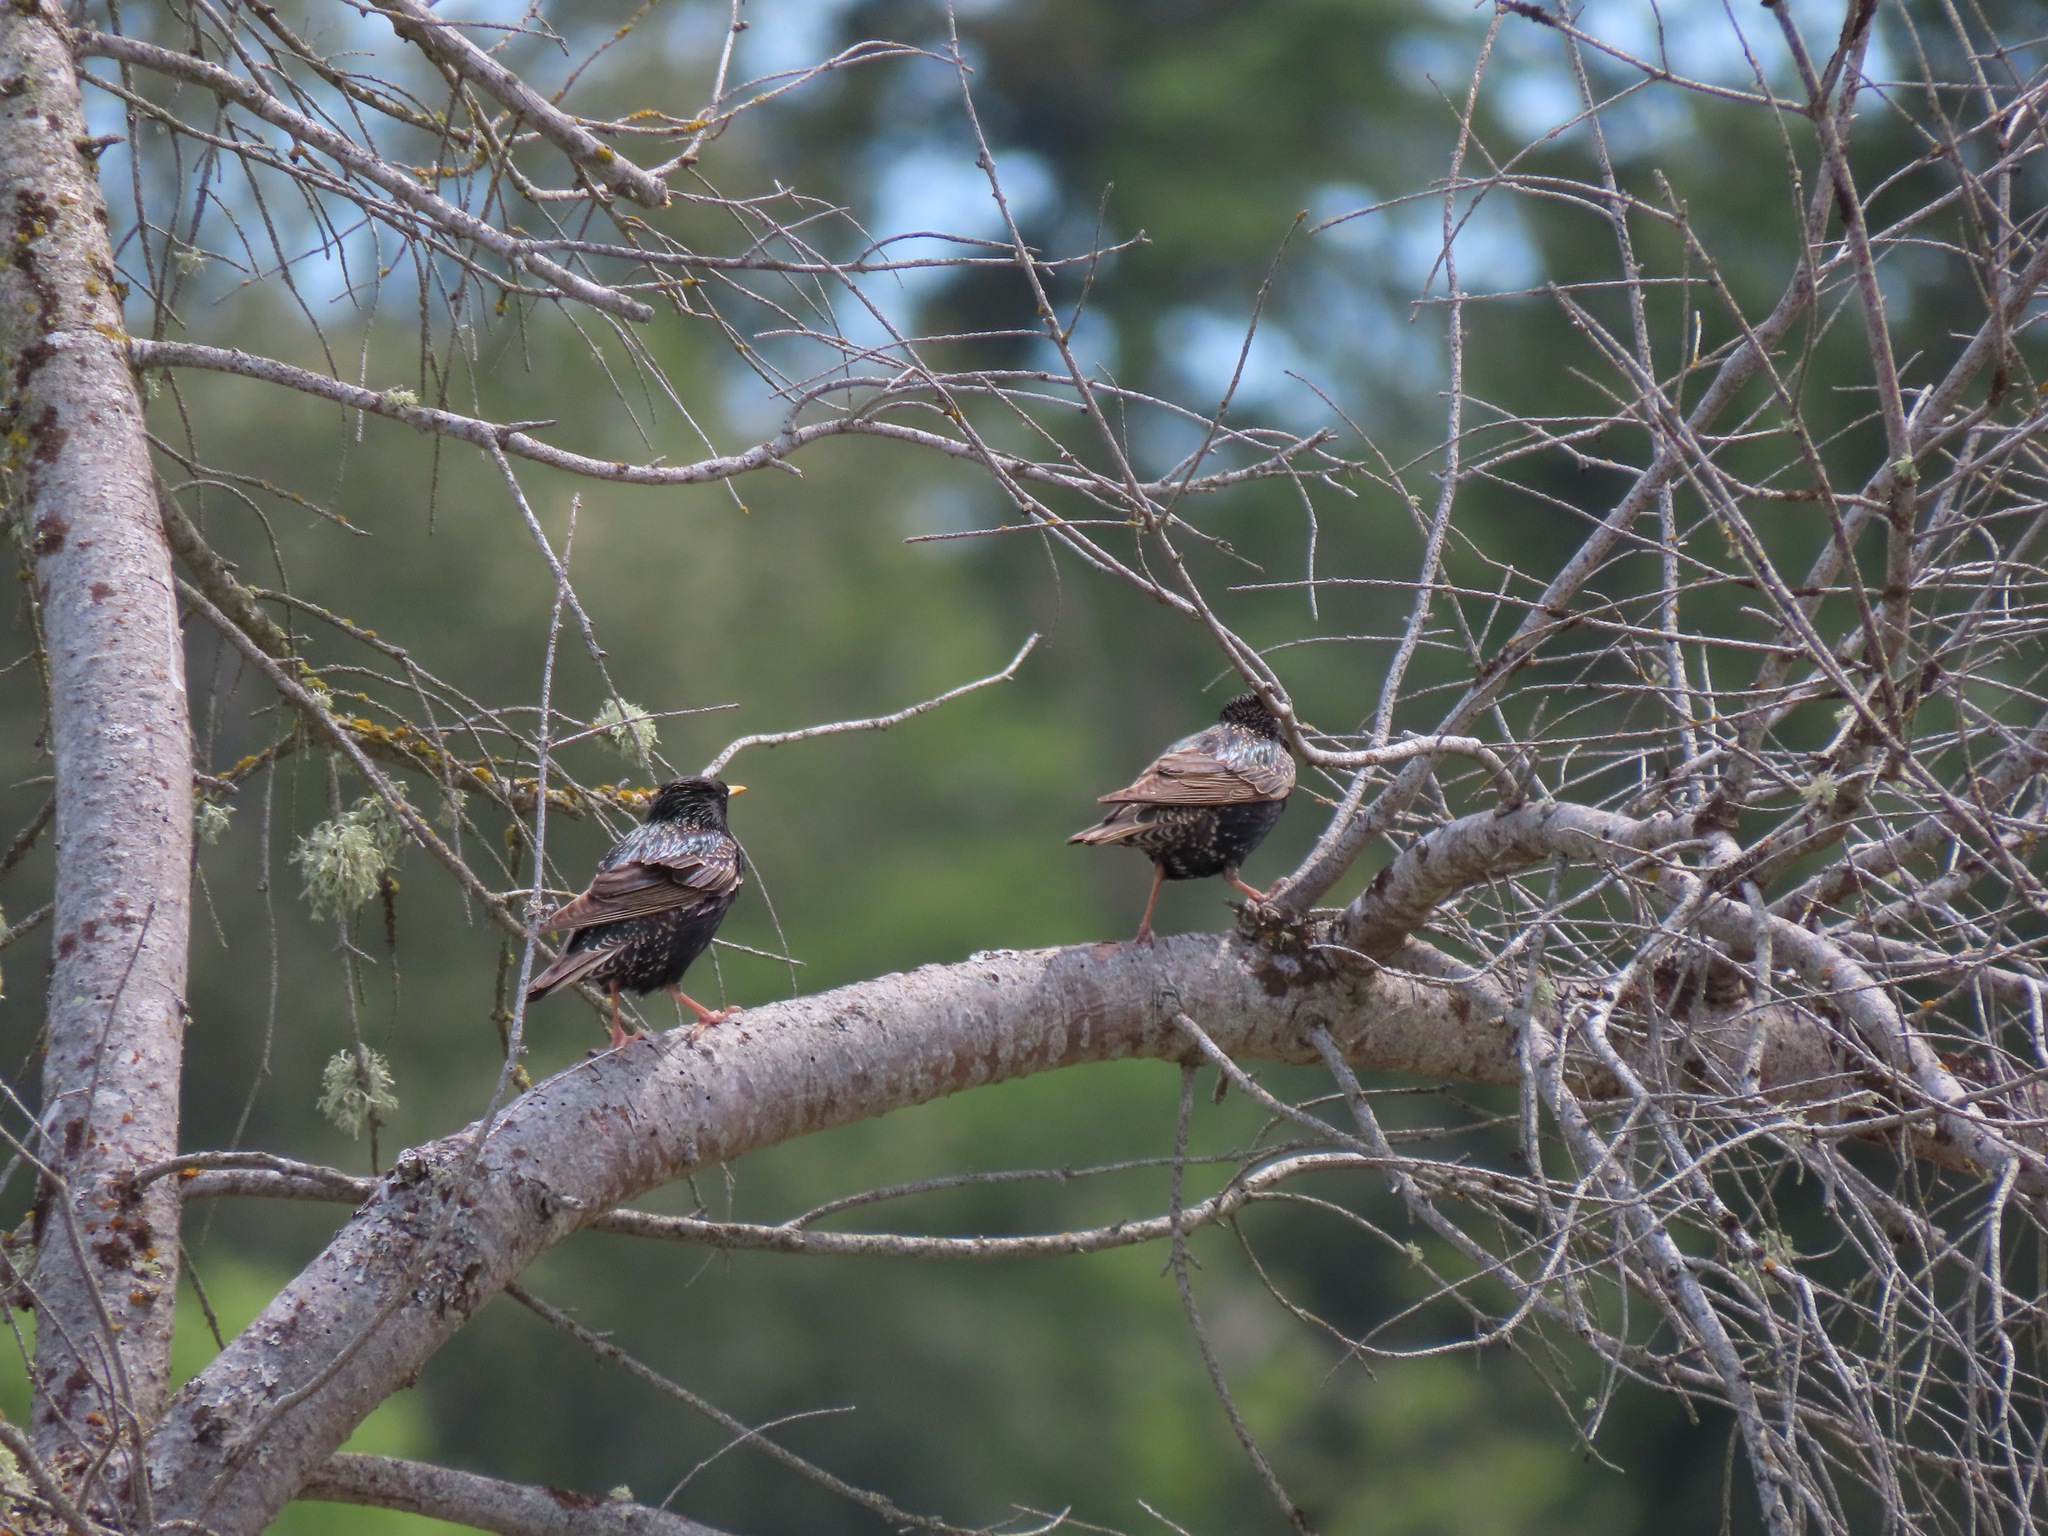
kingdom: Animalia
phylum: Chordata
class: Aves
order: Passeriformes
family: Sturnidae
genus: Sturnus
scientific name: Sturnus vulgaris
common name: Common starling
